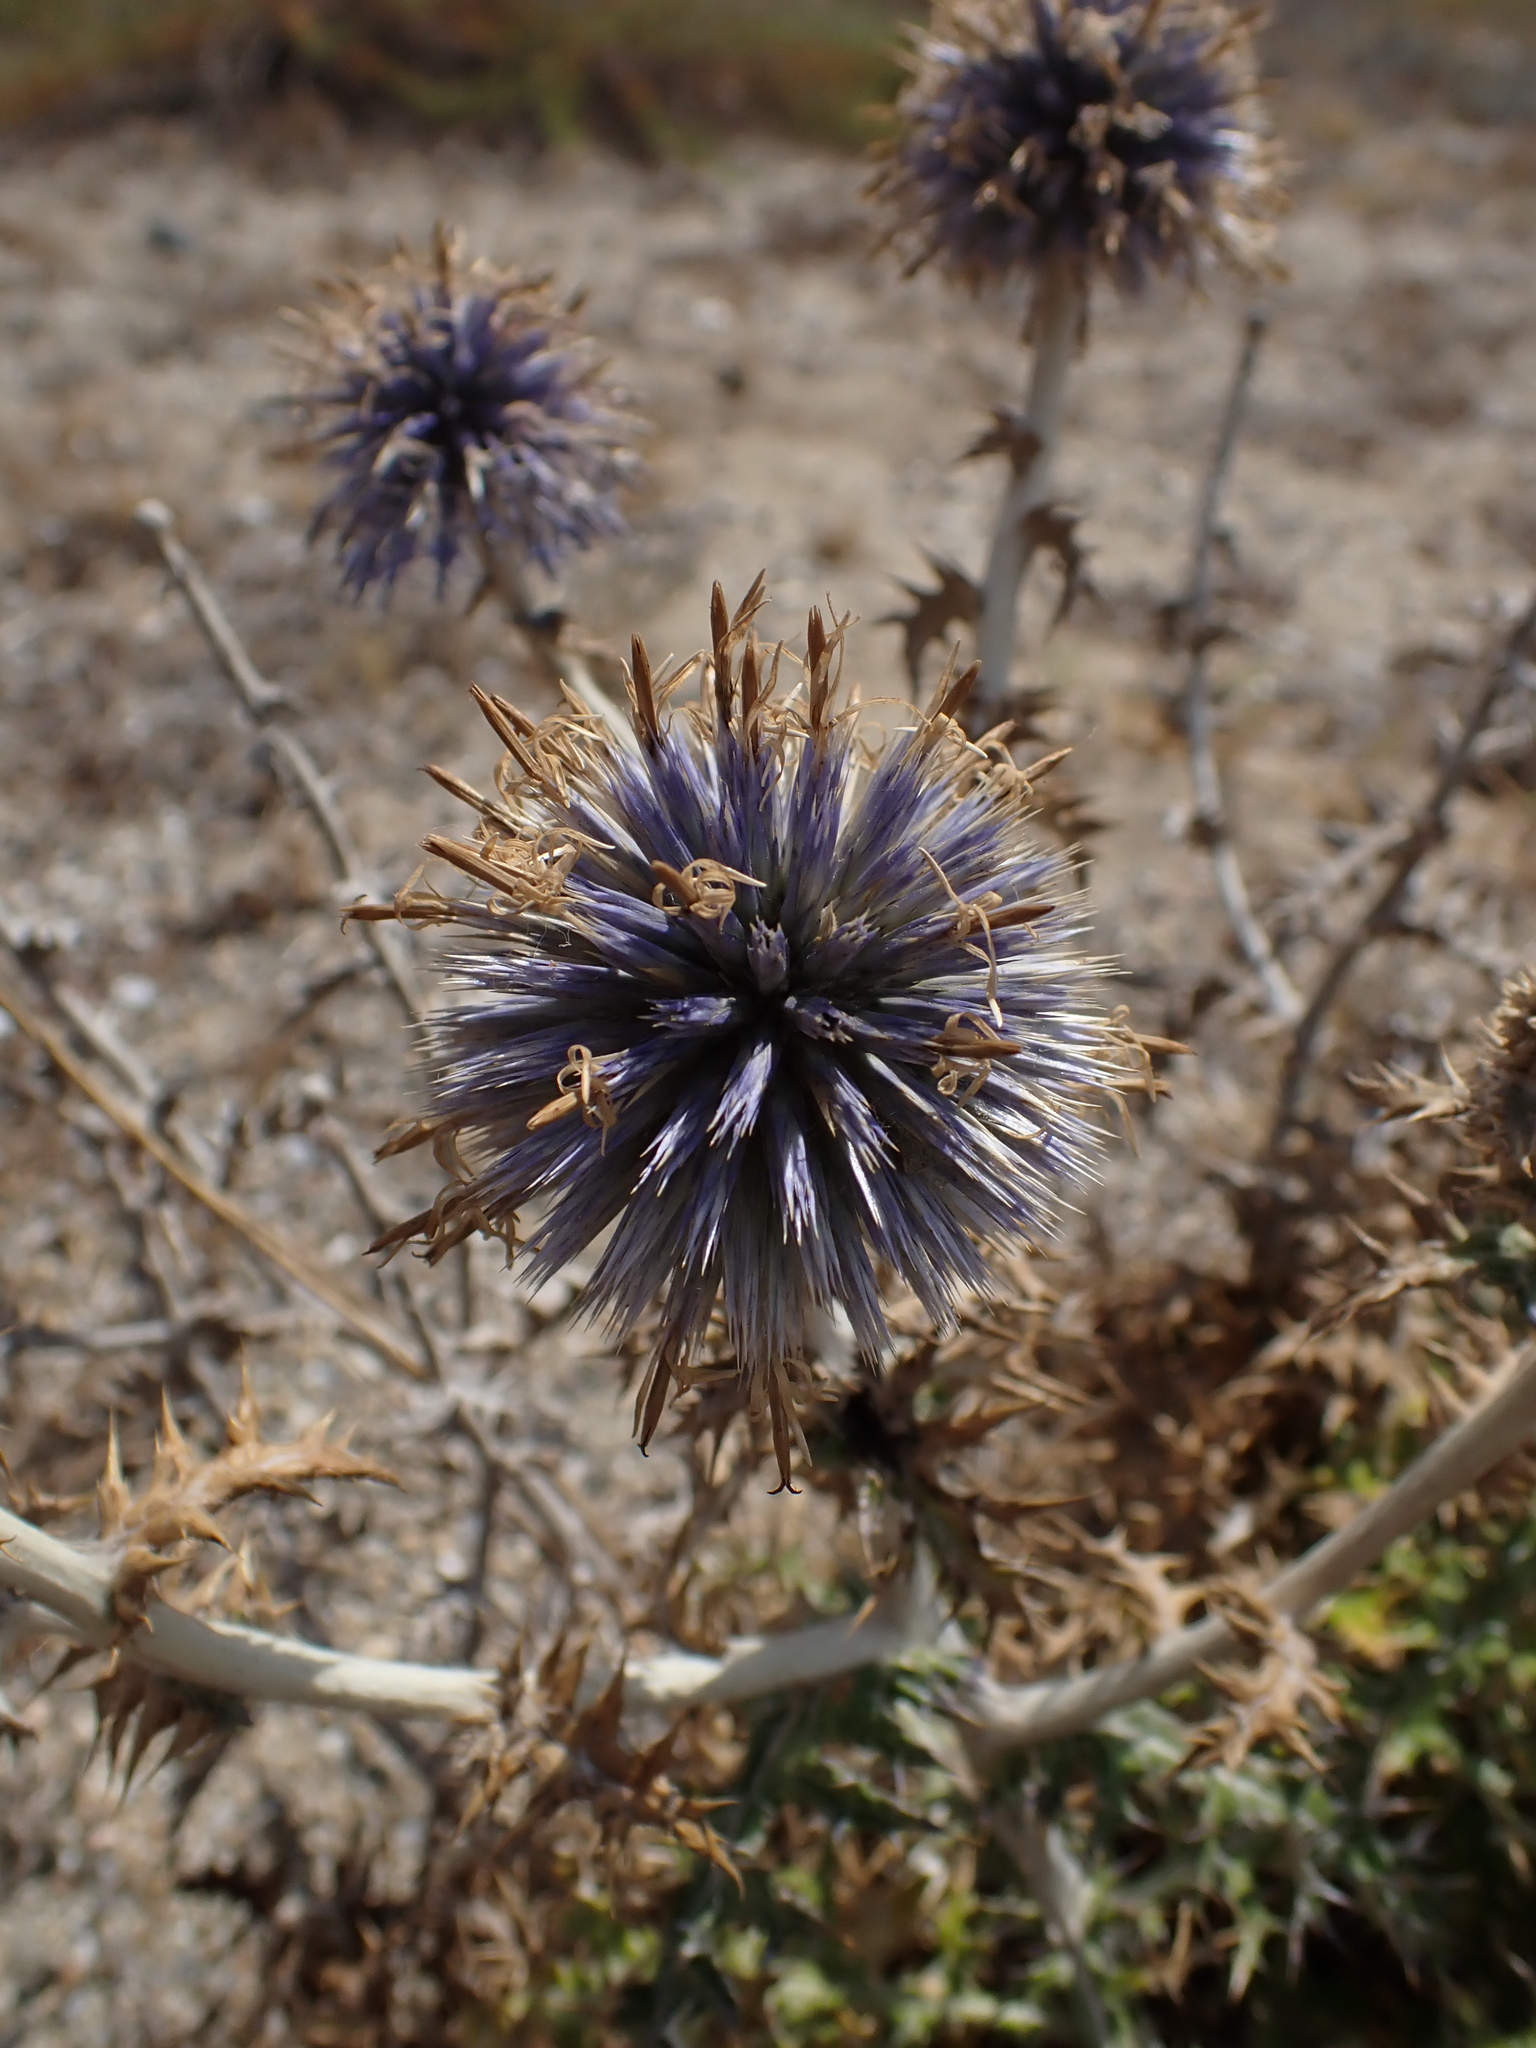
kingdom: Plantae
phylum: Tracheophyta
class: Magnoliopsida
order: Asterales
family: Asteraceae
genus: Echinops
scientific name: Echinops ritro
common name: Globe thistle
